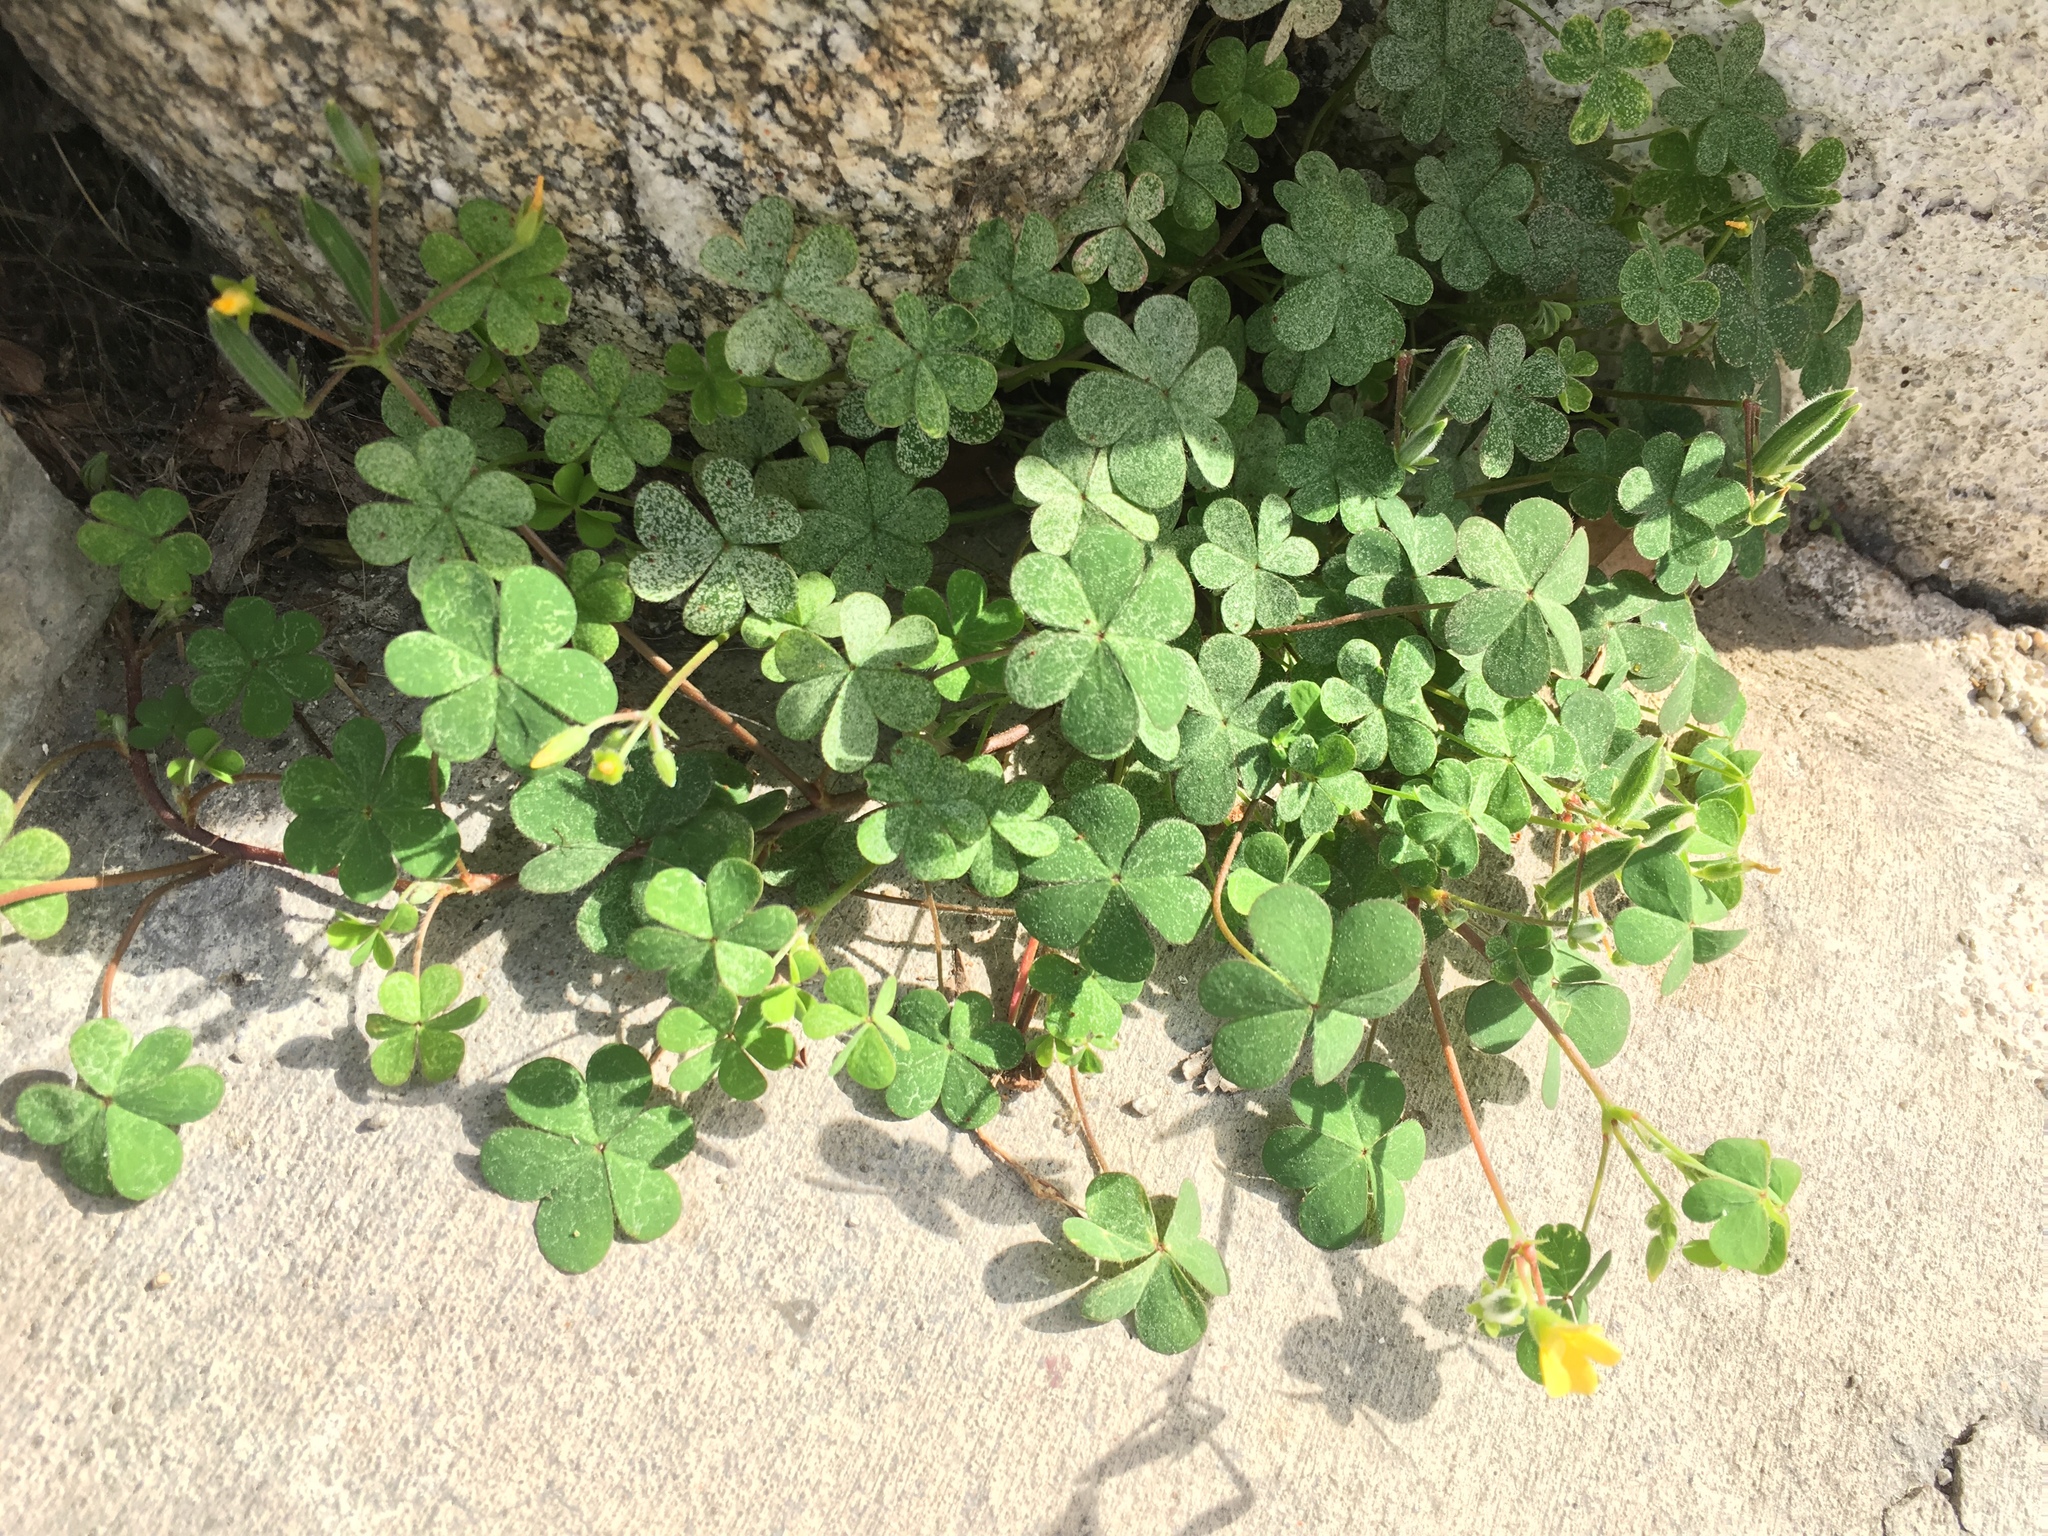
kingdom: Plantae
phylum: Tracheophyta
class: Magnoliopsida
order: Oxalidales
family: Oxalidaceae
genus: Oxalis
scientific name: Oxalis corniculata
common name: Procumbent yellow-sorrel
